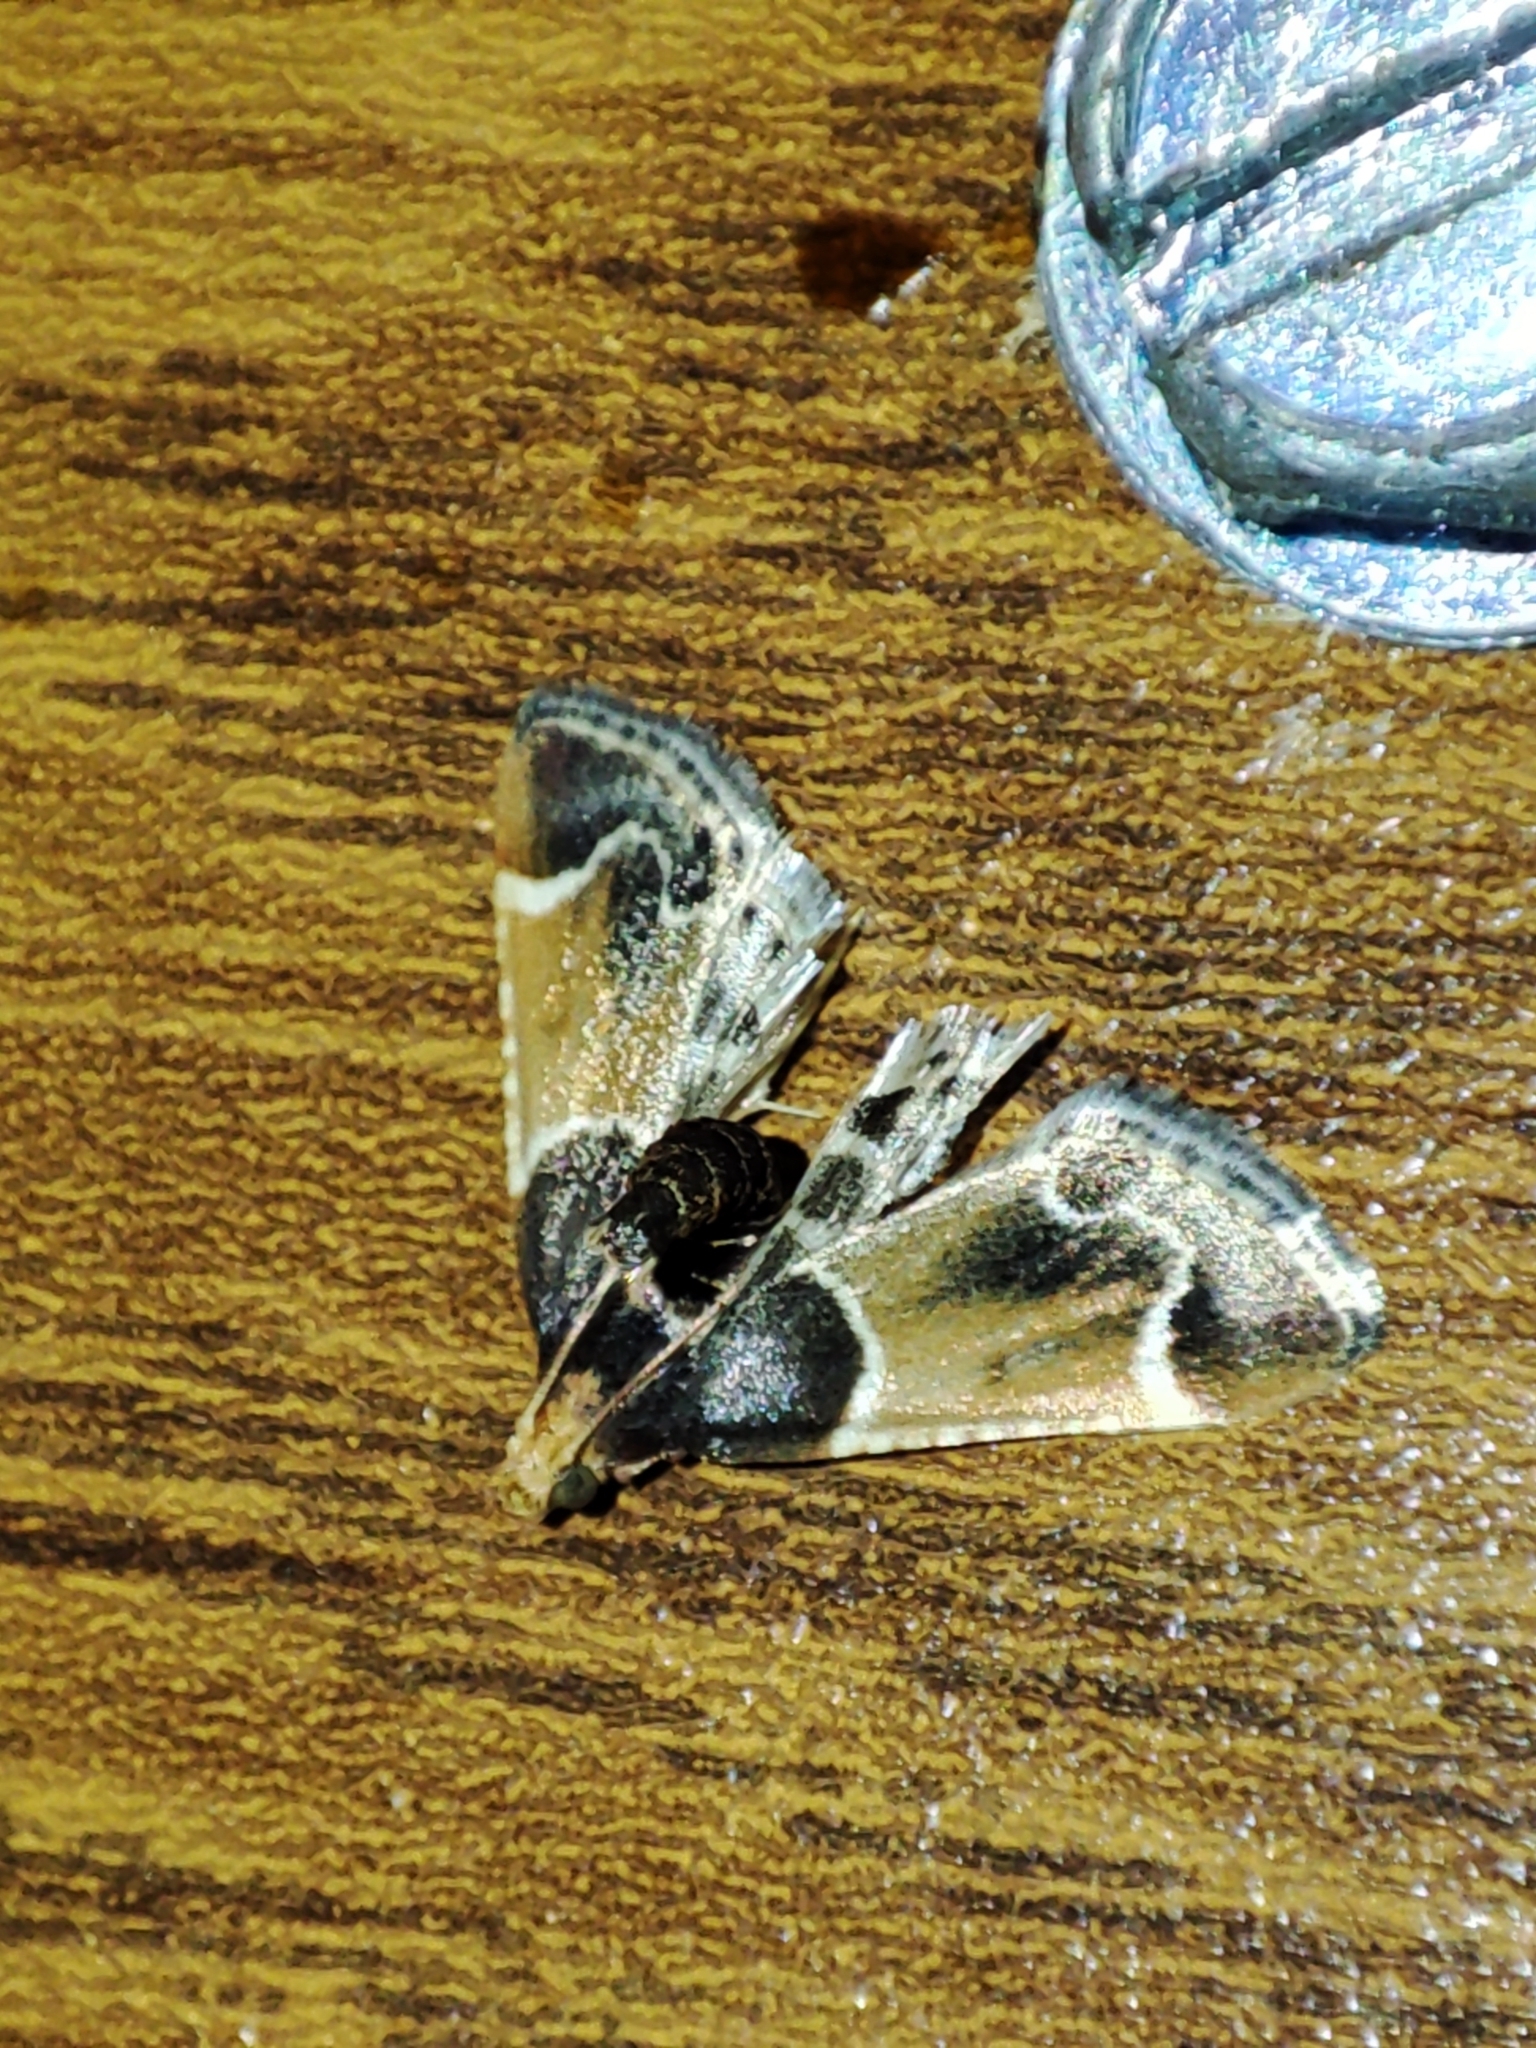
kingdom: Animalia
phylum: Arthropoda
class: Insecta
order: Lepidoptera
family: Pyralidae
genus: Pyralis
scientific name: Pyralis farinalis
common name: Meal moth
